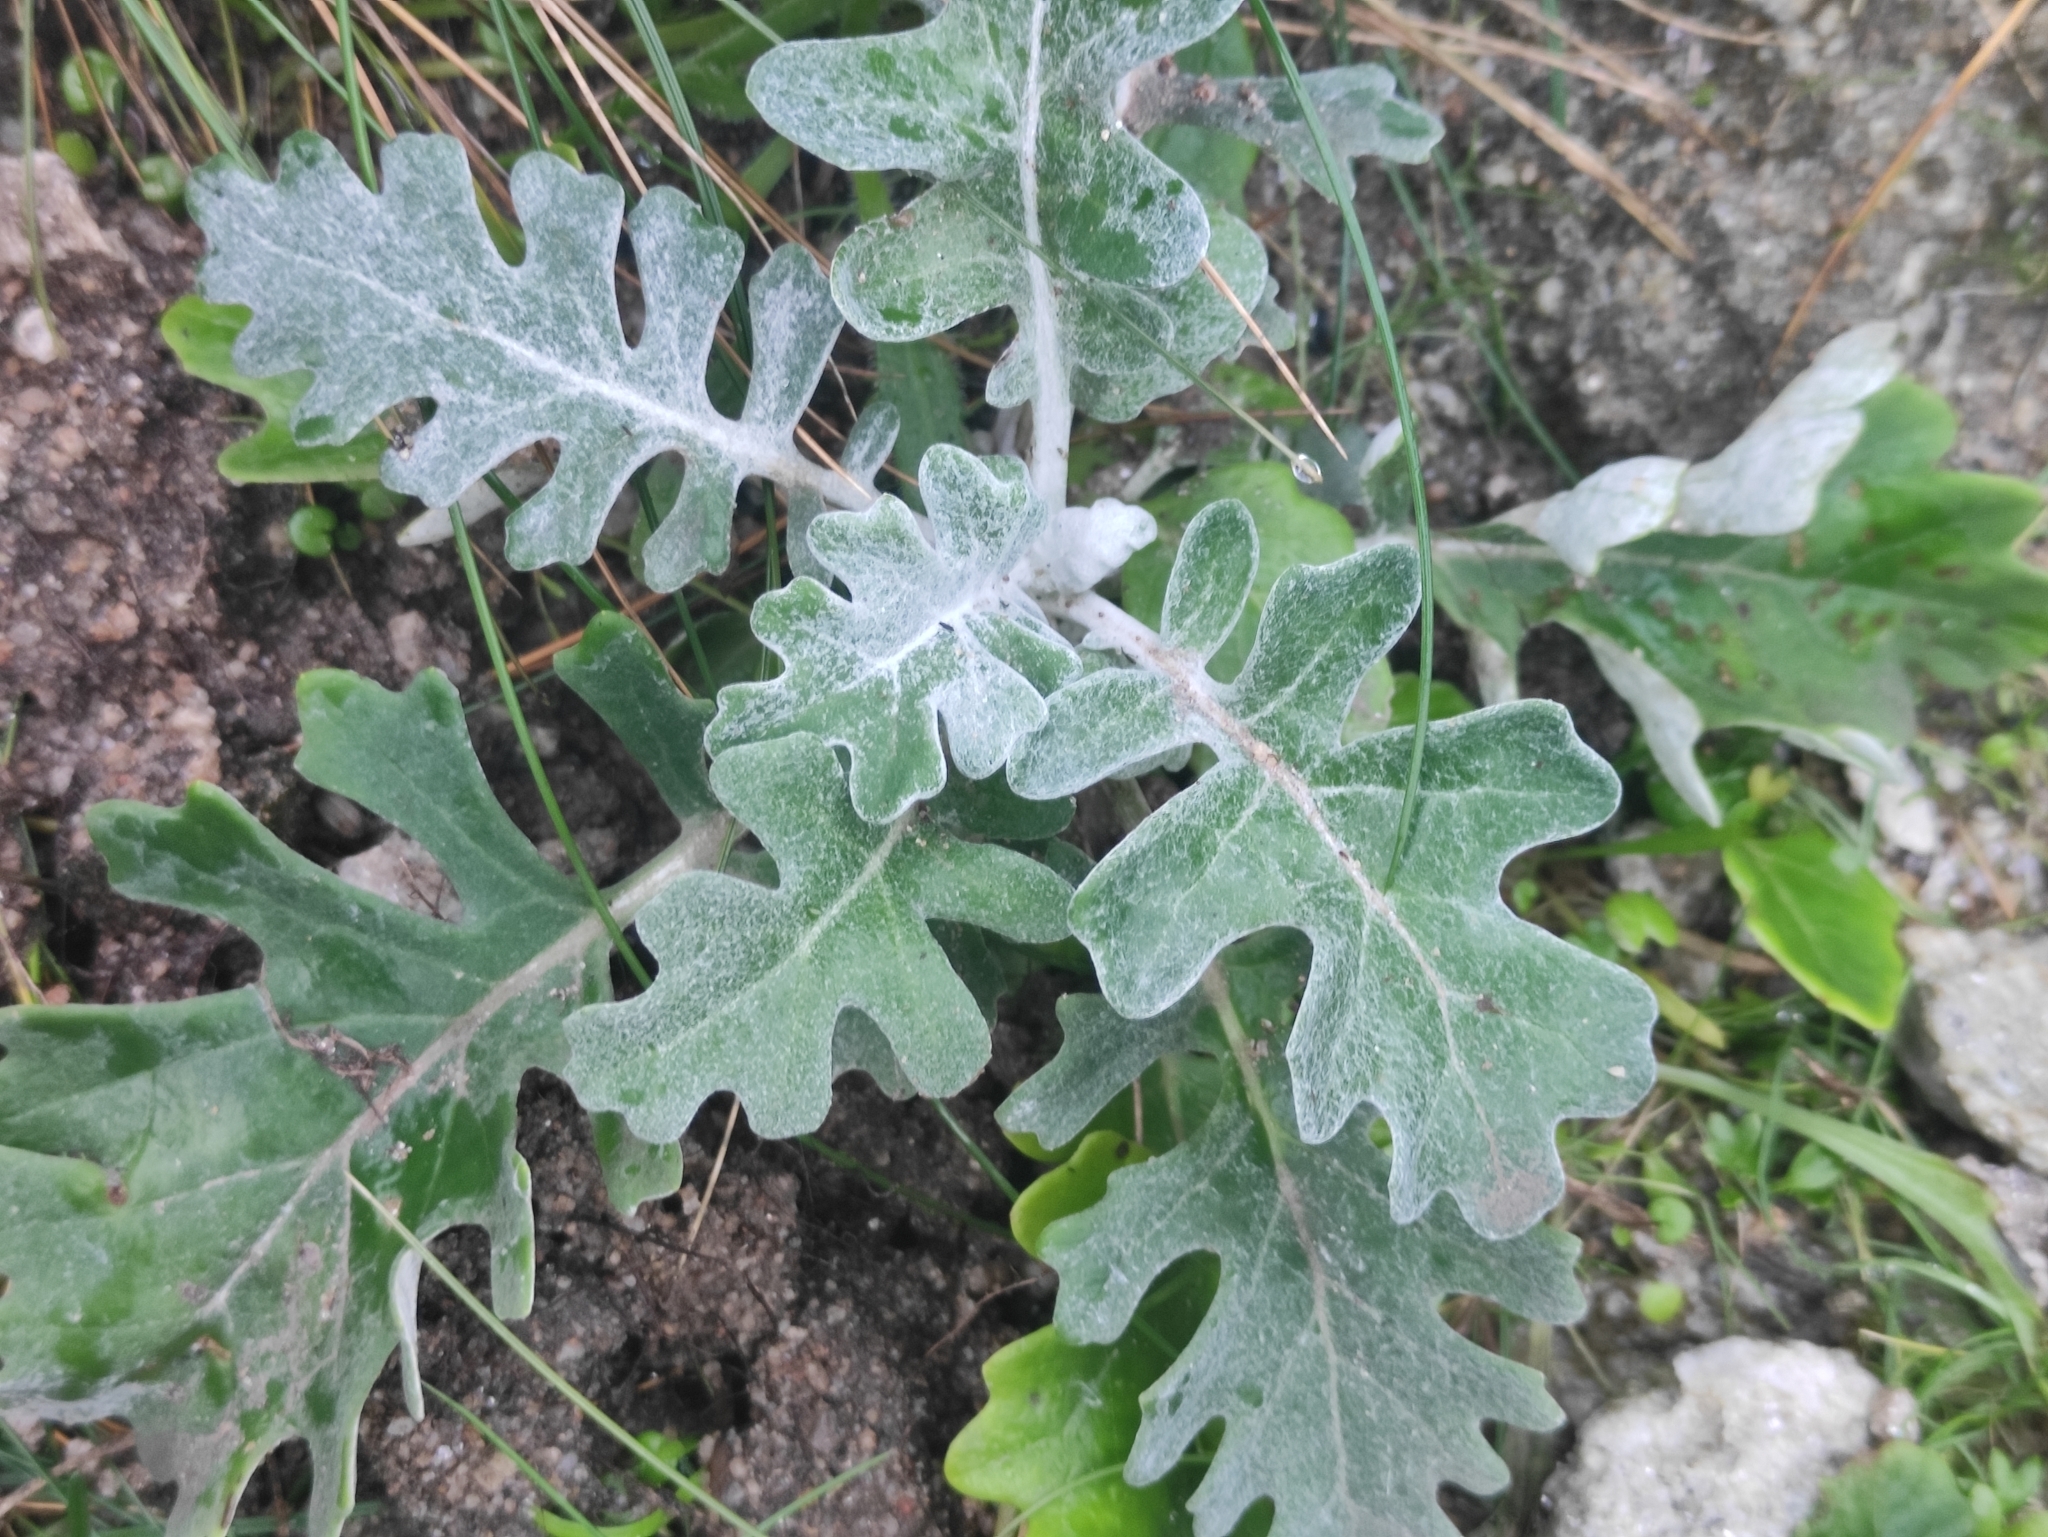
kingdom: Plantae
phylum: Tracheophyta
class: Magnoliopsida
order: Asterales
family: Asteraceae
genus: Jacobaea
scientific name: Jacobaea maritima
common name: Silver ragwort
